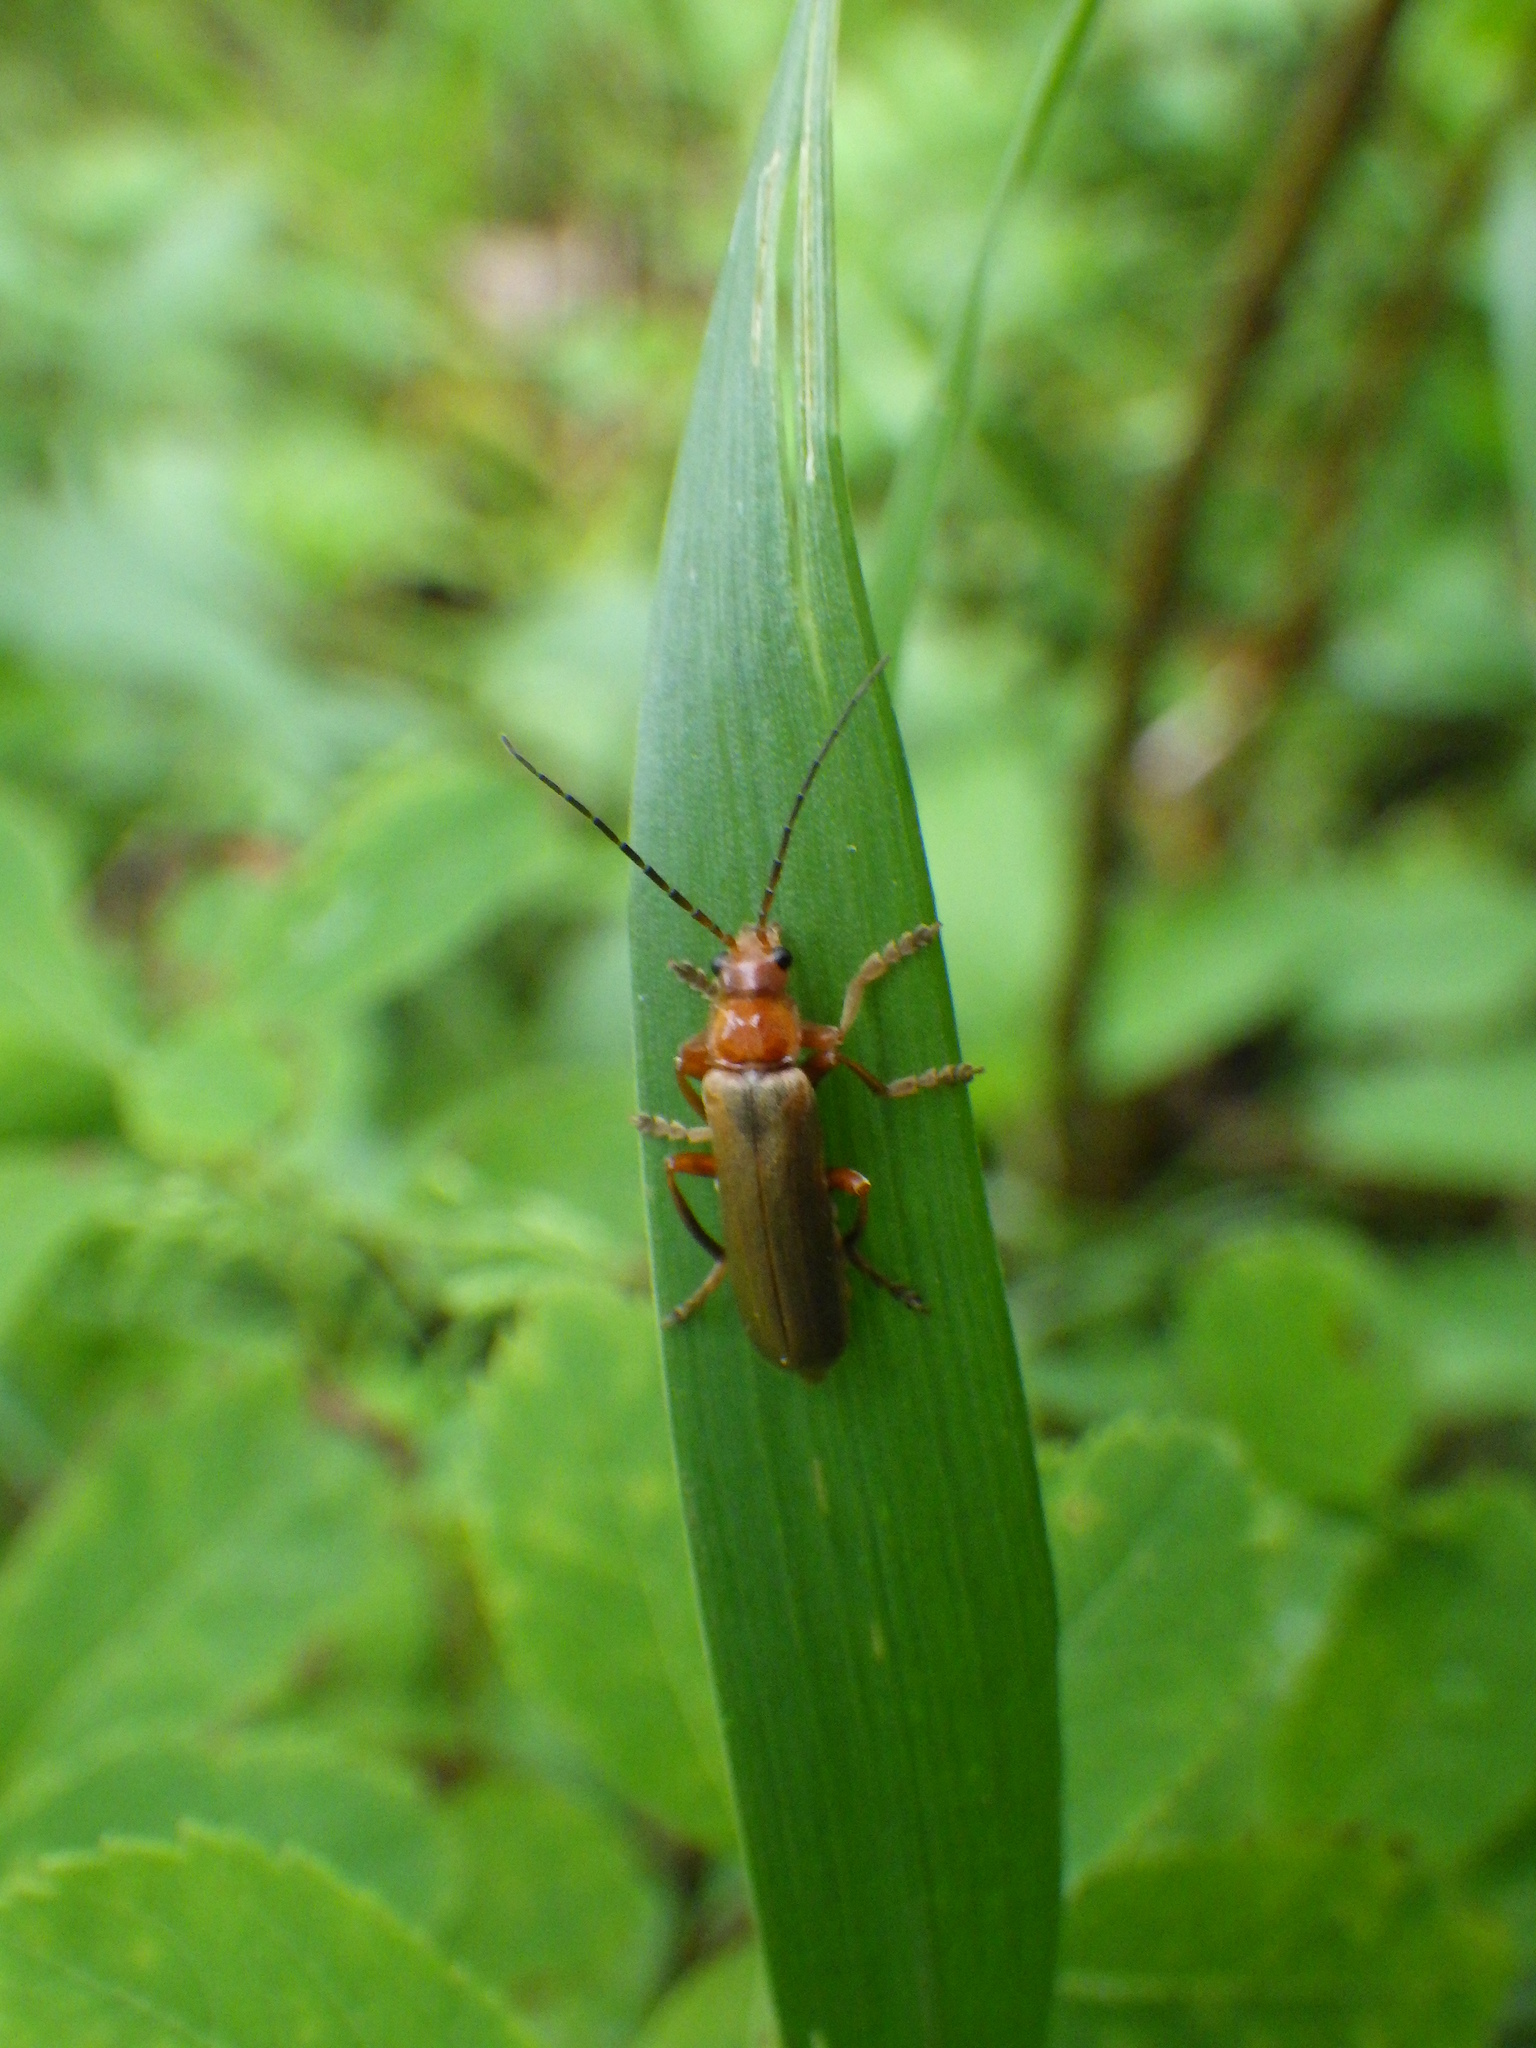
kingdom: Animalia
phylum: Arthropoda
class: Insecta
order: Coleoptera
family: Cantharidae
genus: Cantharis
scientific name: Cantharis rufa
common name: Red-spotted soldier beetle
